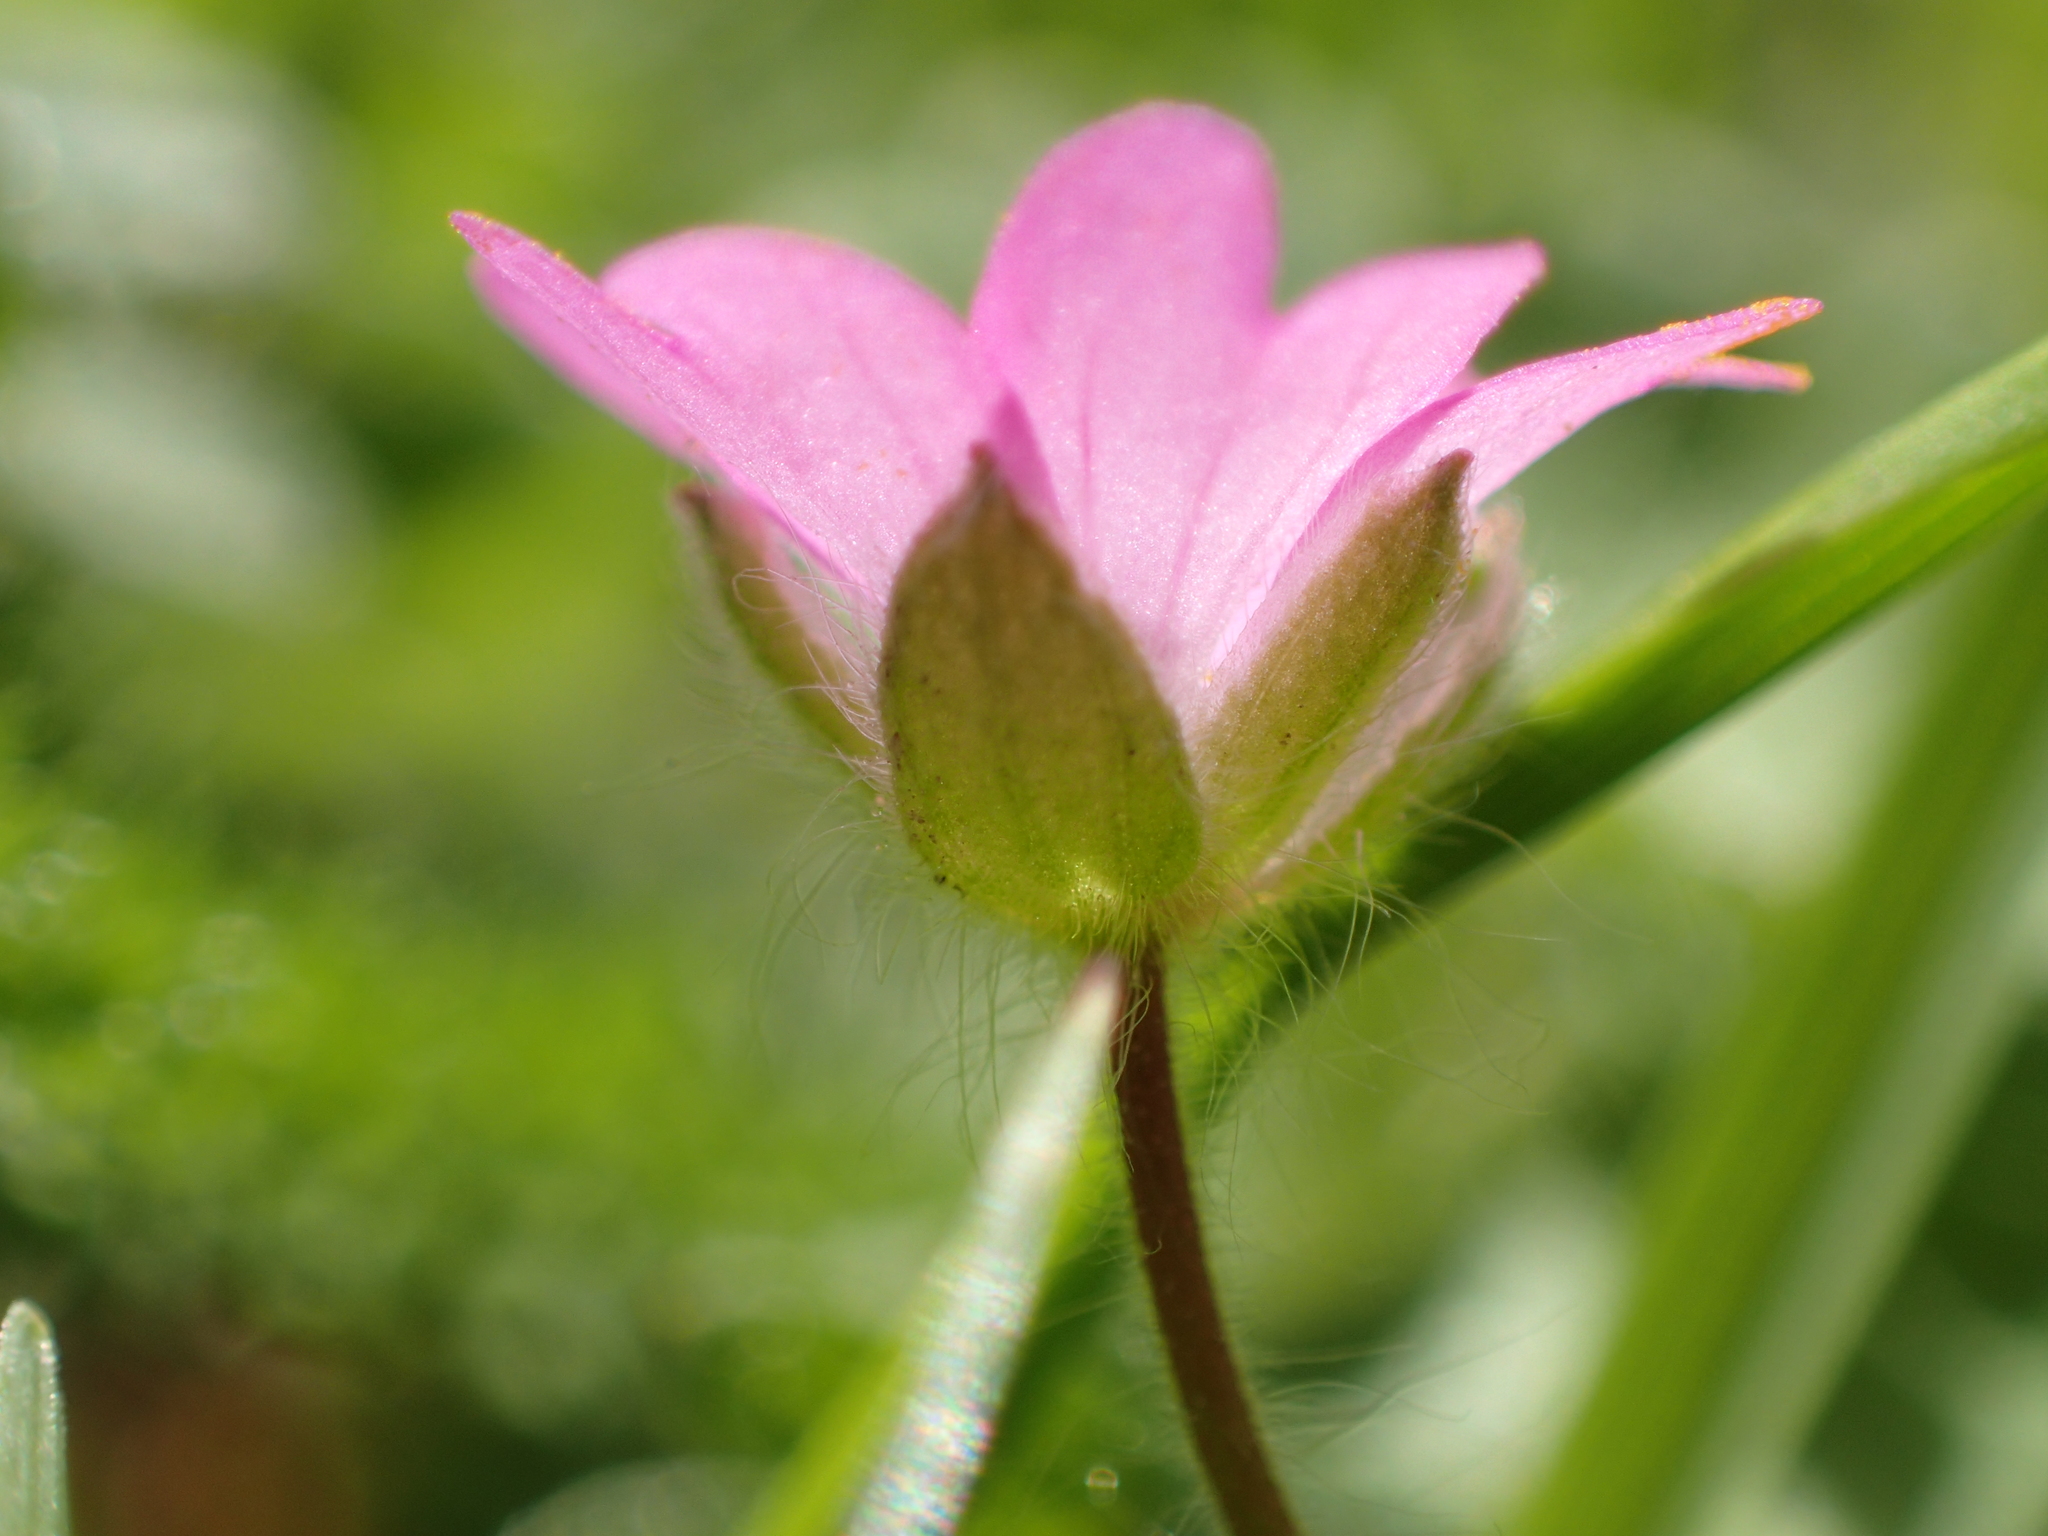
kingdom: Plantae
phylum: Tracheophyta
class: Magnoliopsida
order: Geraniales
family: Geraniaceae
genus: Geranium
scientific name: Geranium molle
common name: Dove's-foot crane's-bill
